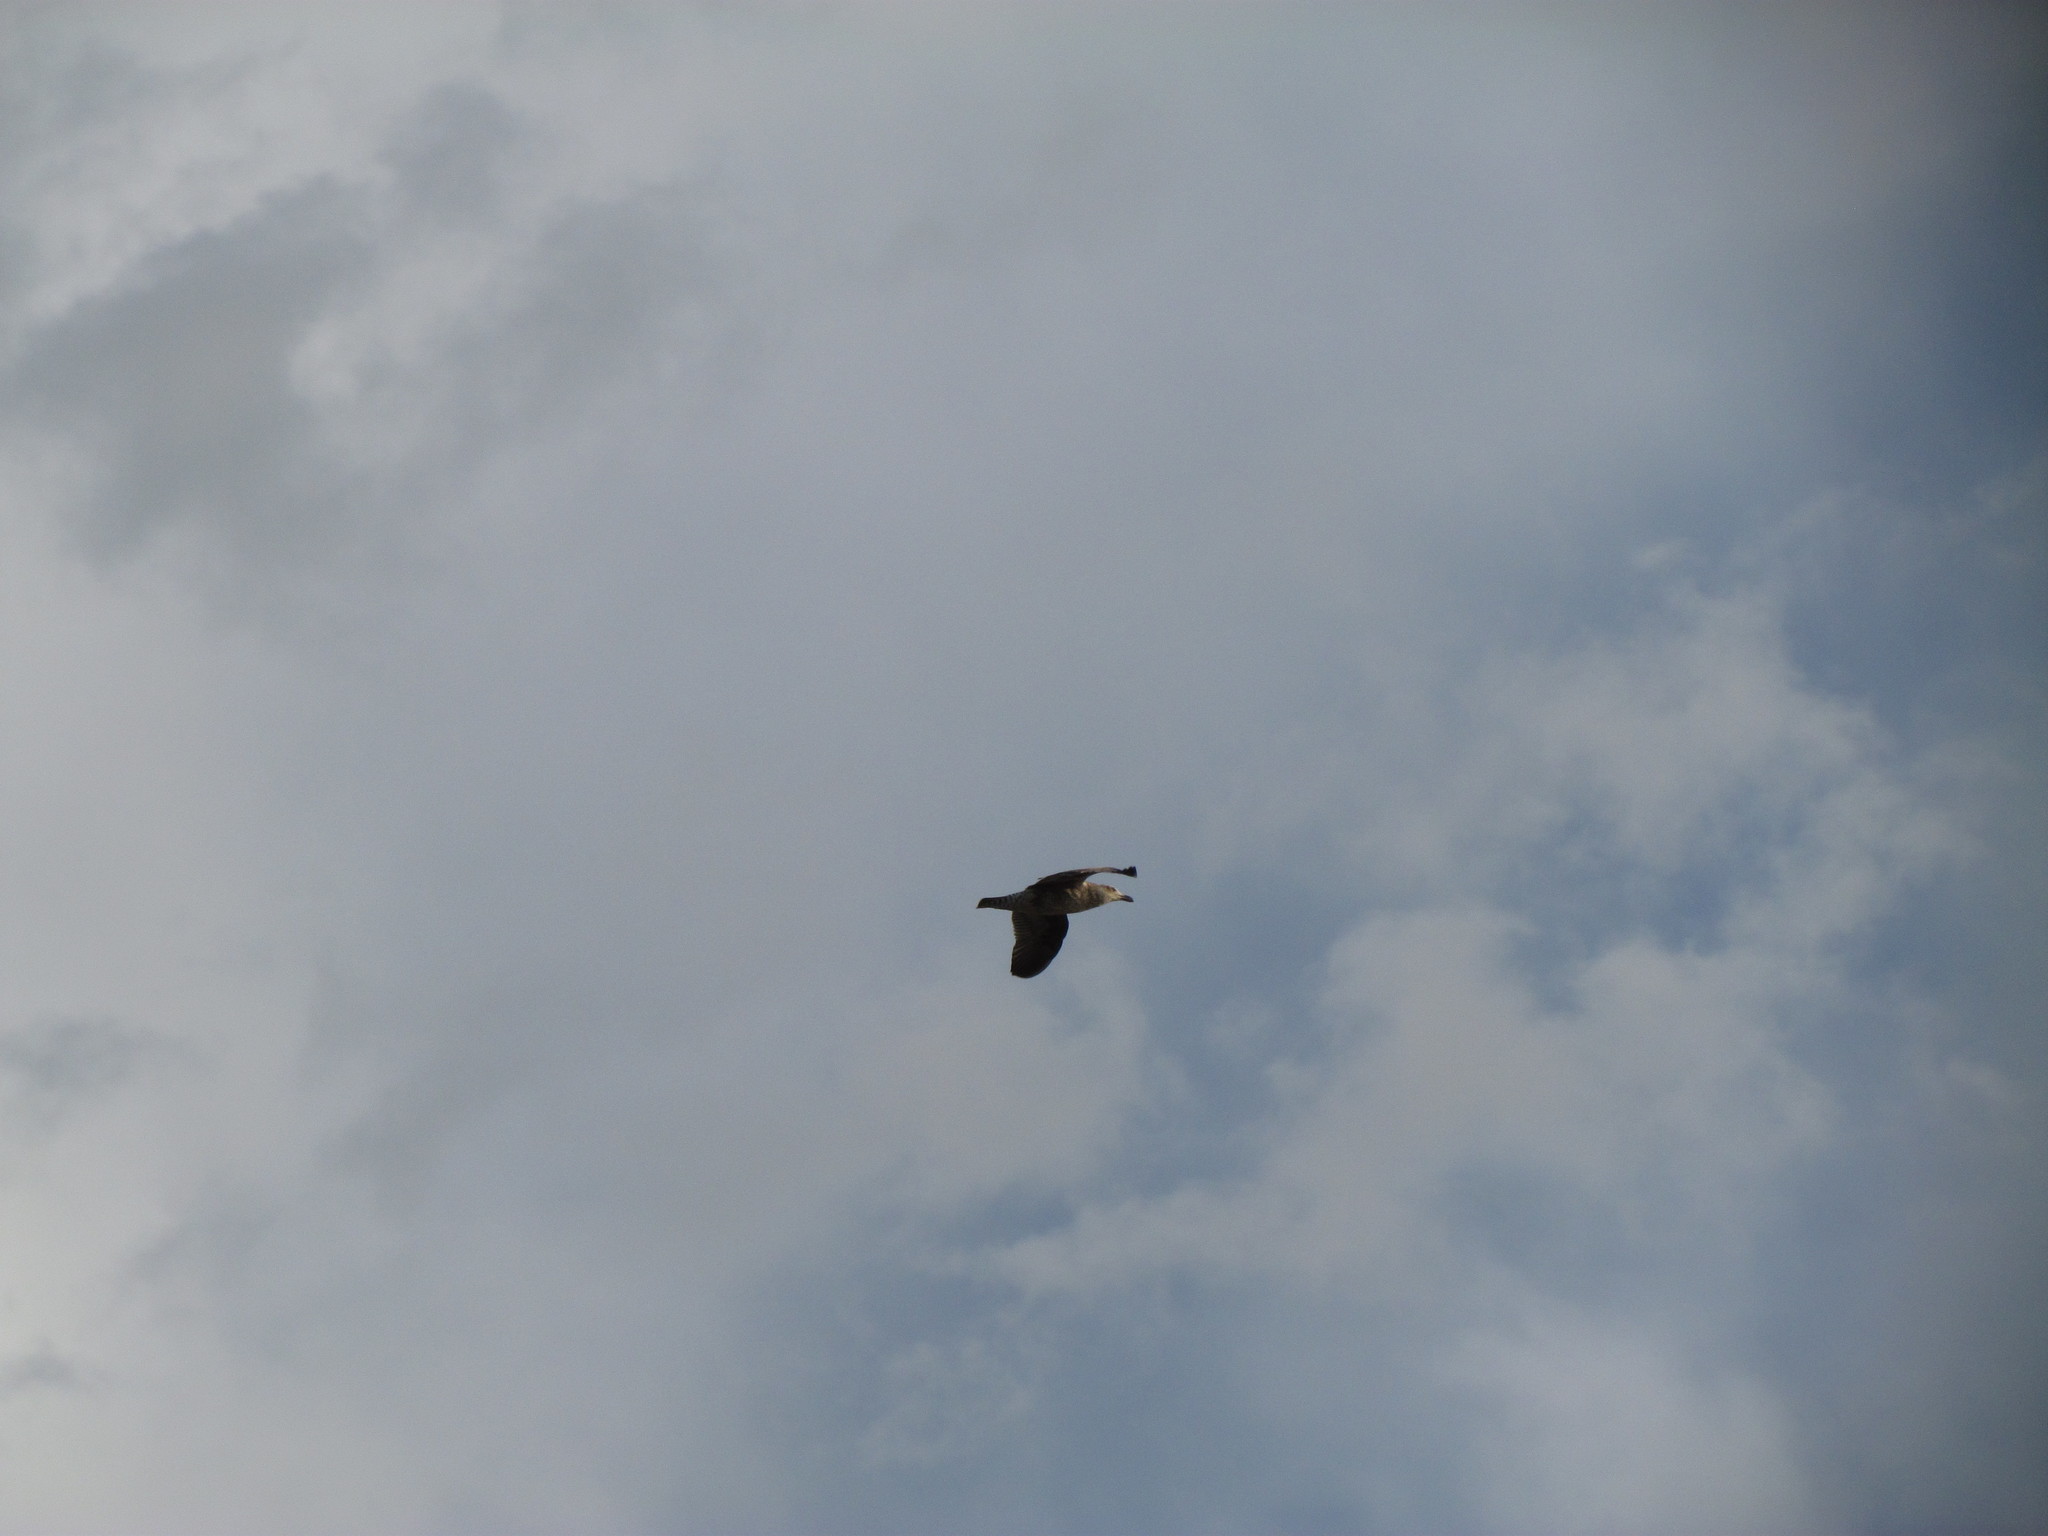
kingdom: Animalia
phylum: Chordata
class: Aves
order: Charadriiformes
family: Laridae
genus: Larus
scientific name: Larus dominicanus
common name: Kelp gull
